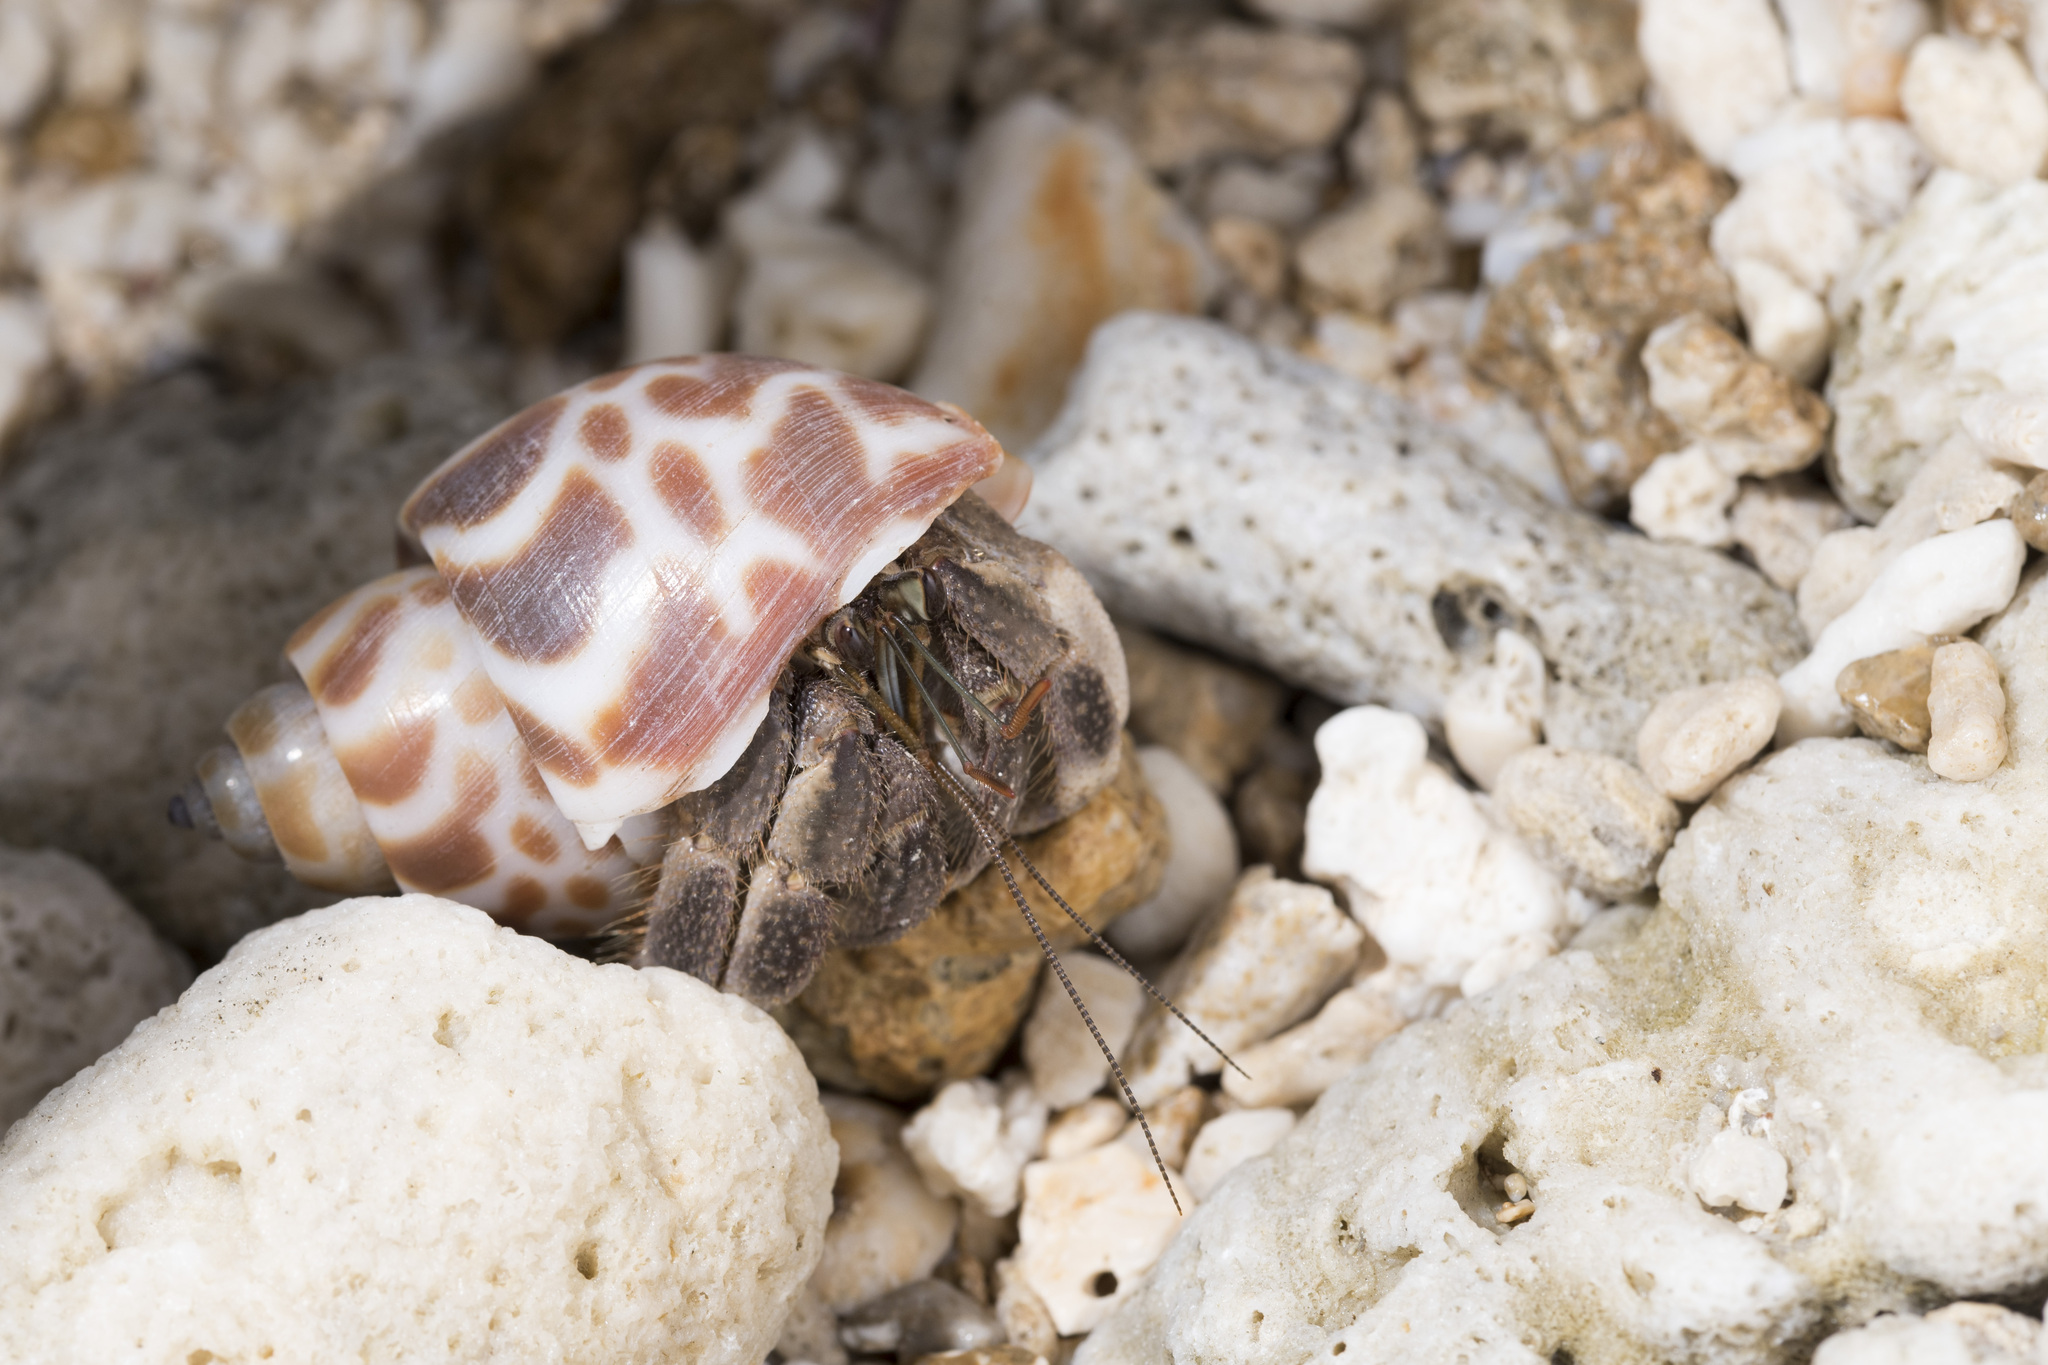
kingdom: Animalia
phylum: Arthropoda
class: Malacostraca
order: Decapoda
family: Coenobitidae
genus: Coenobita
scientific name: Coenobita rugosus
